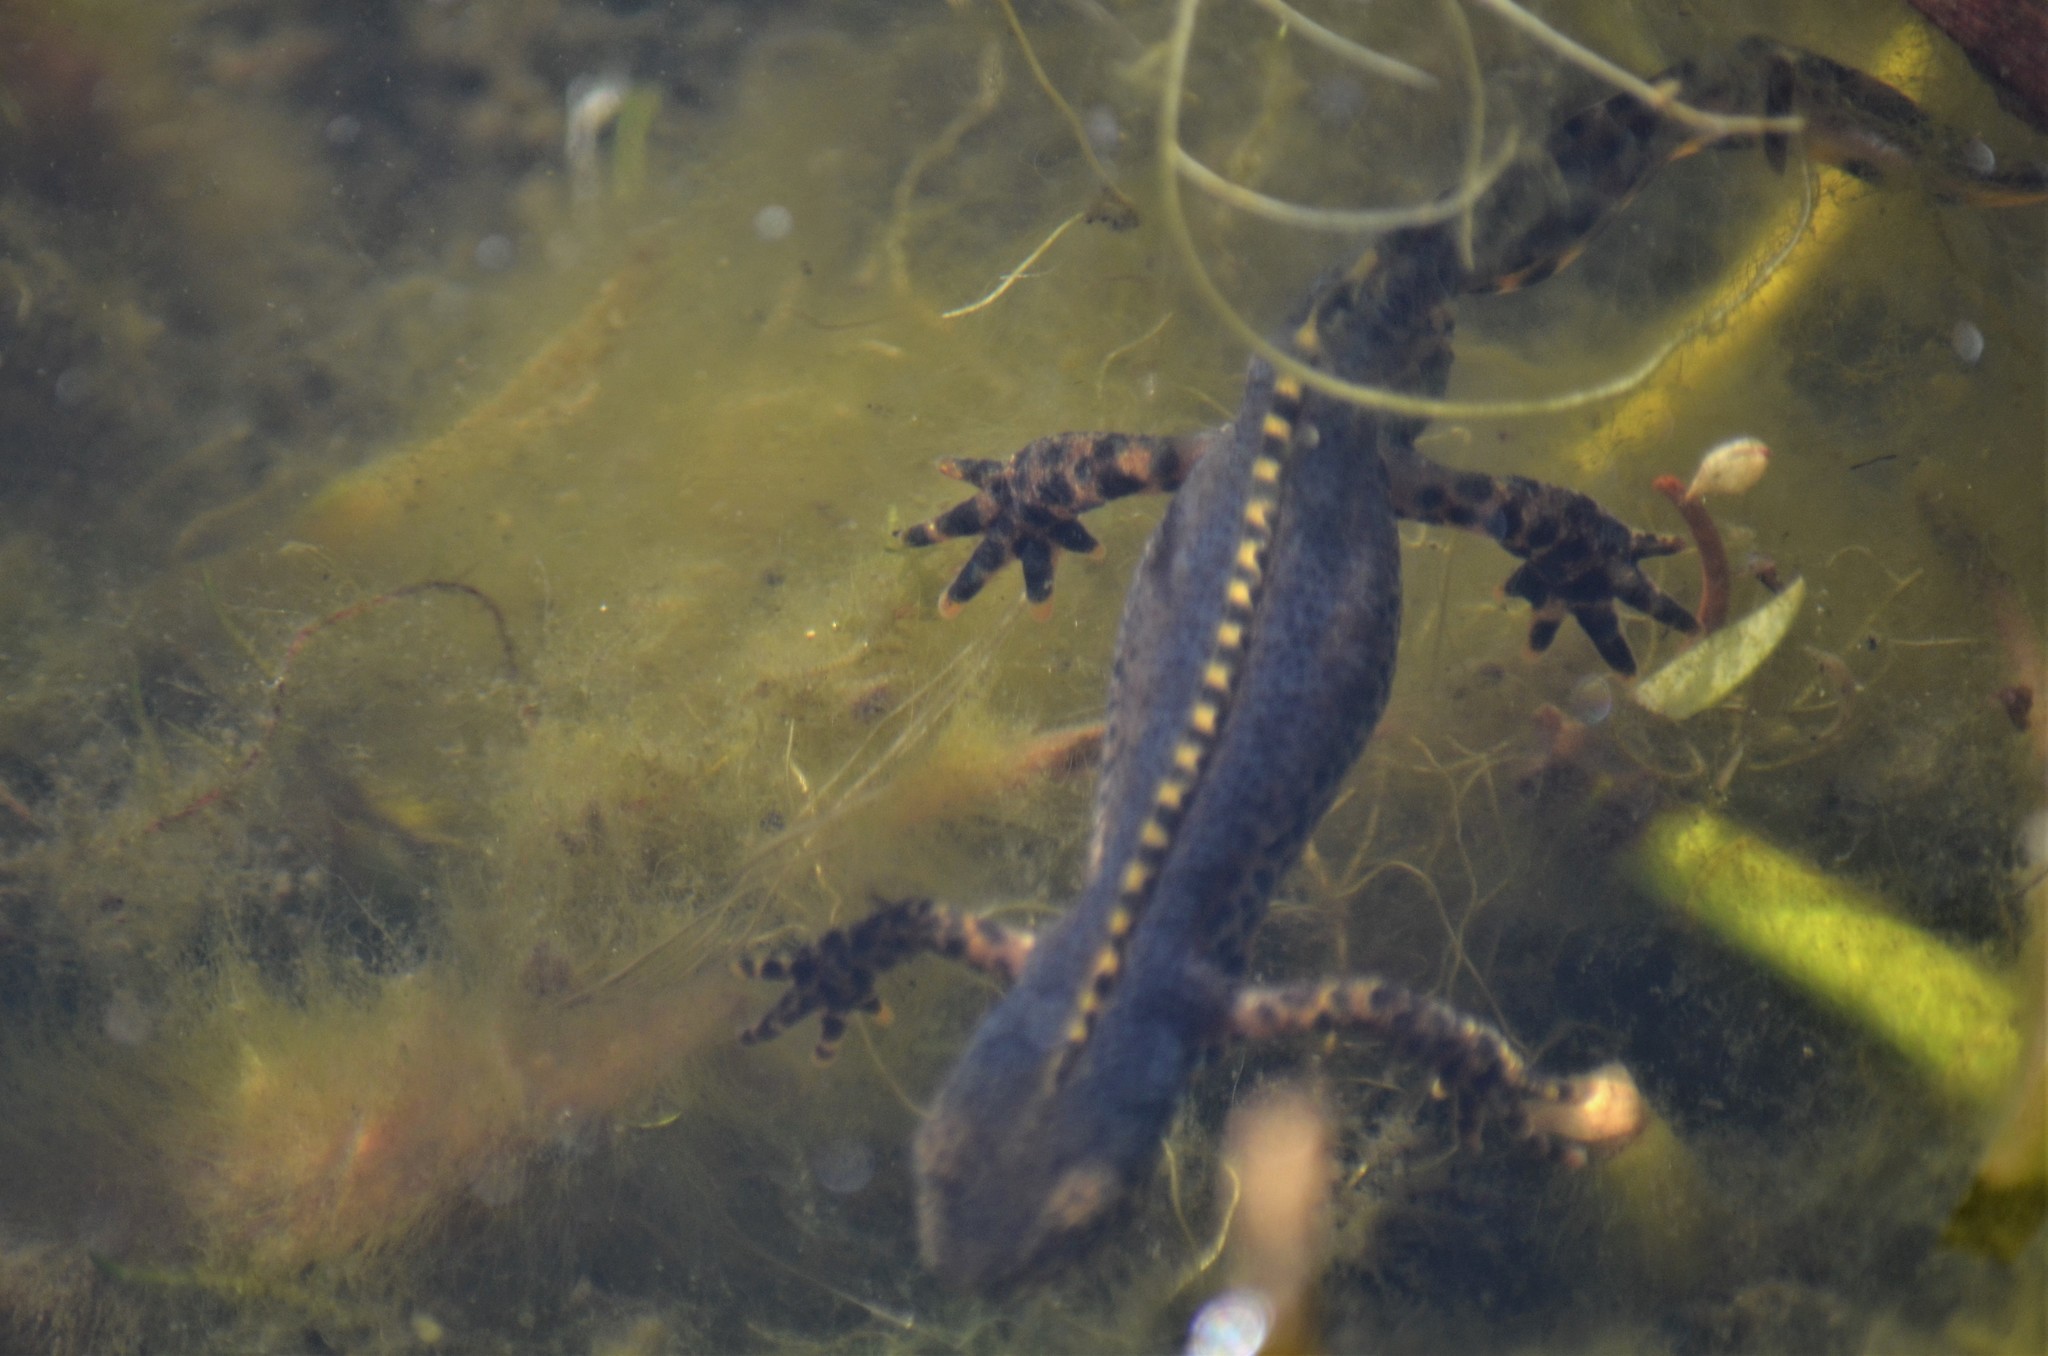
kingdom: Animalia
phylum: Chordata
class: Amphibia
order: Caudata
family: Salamandridae
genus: Ichthyosaura
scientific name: Ichthyosaura alpestris
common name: Alpine newt
